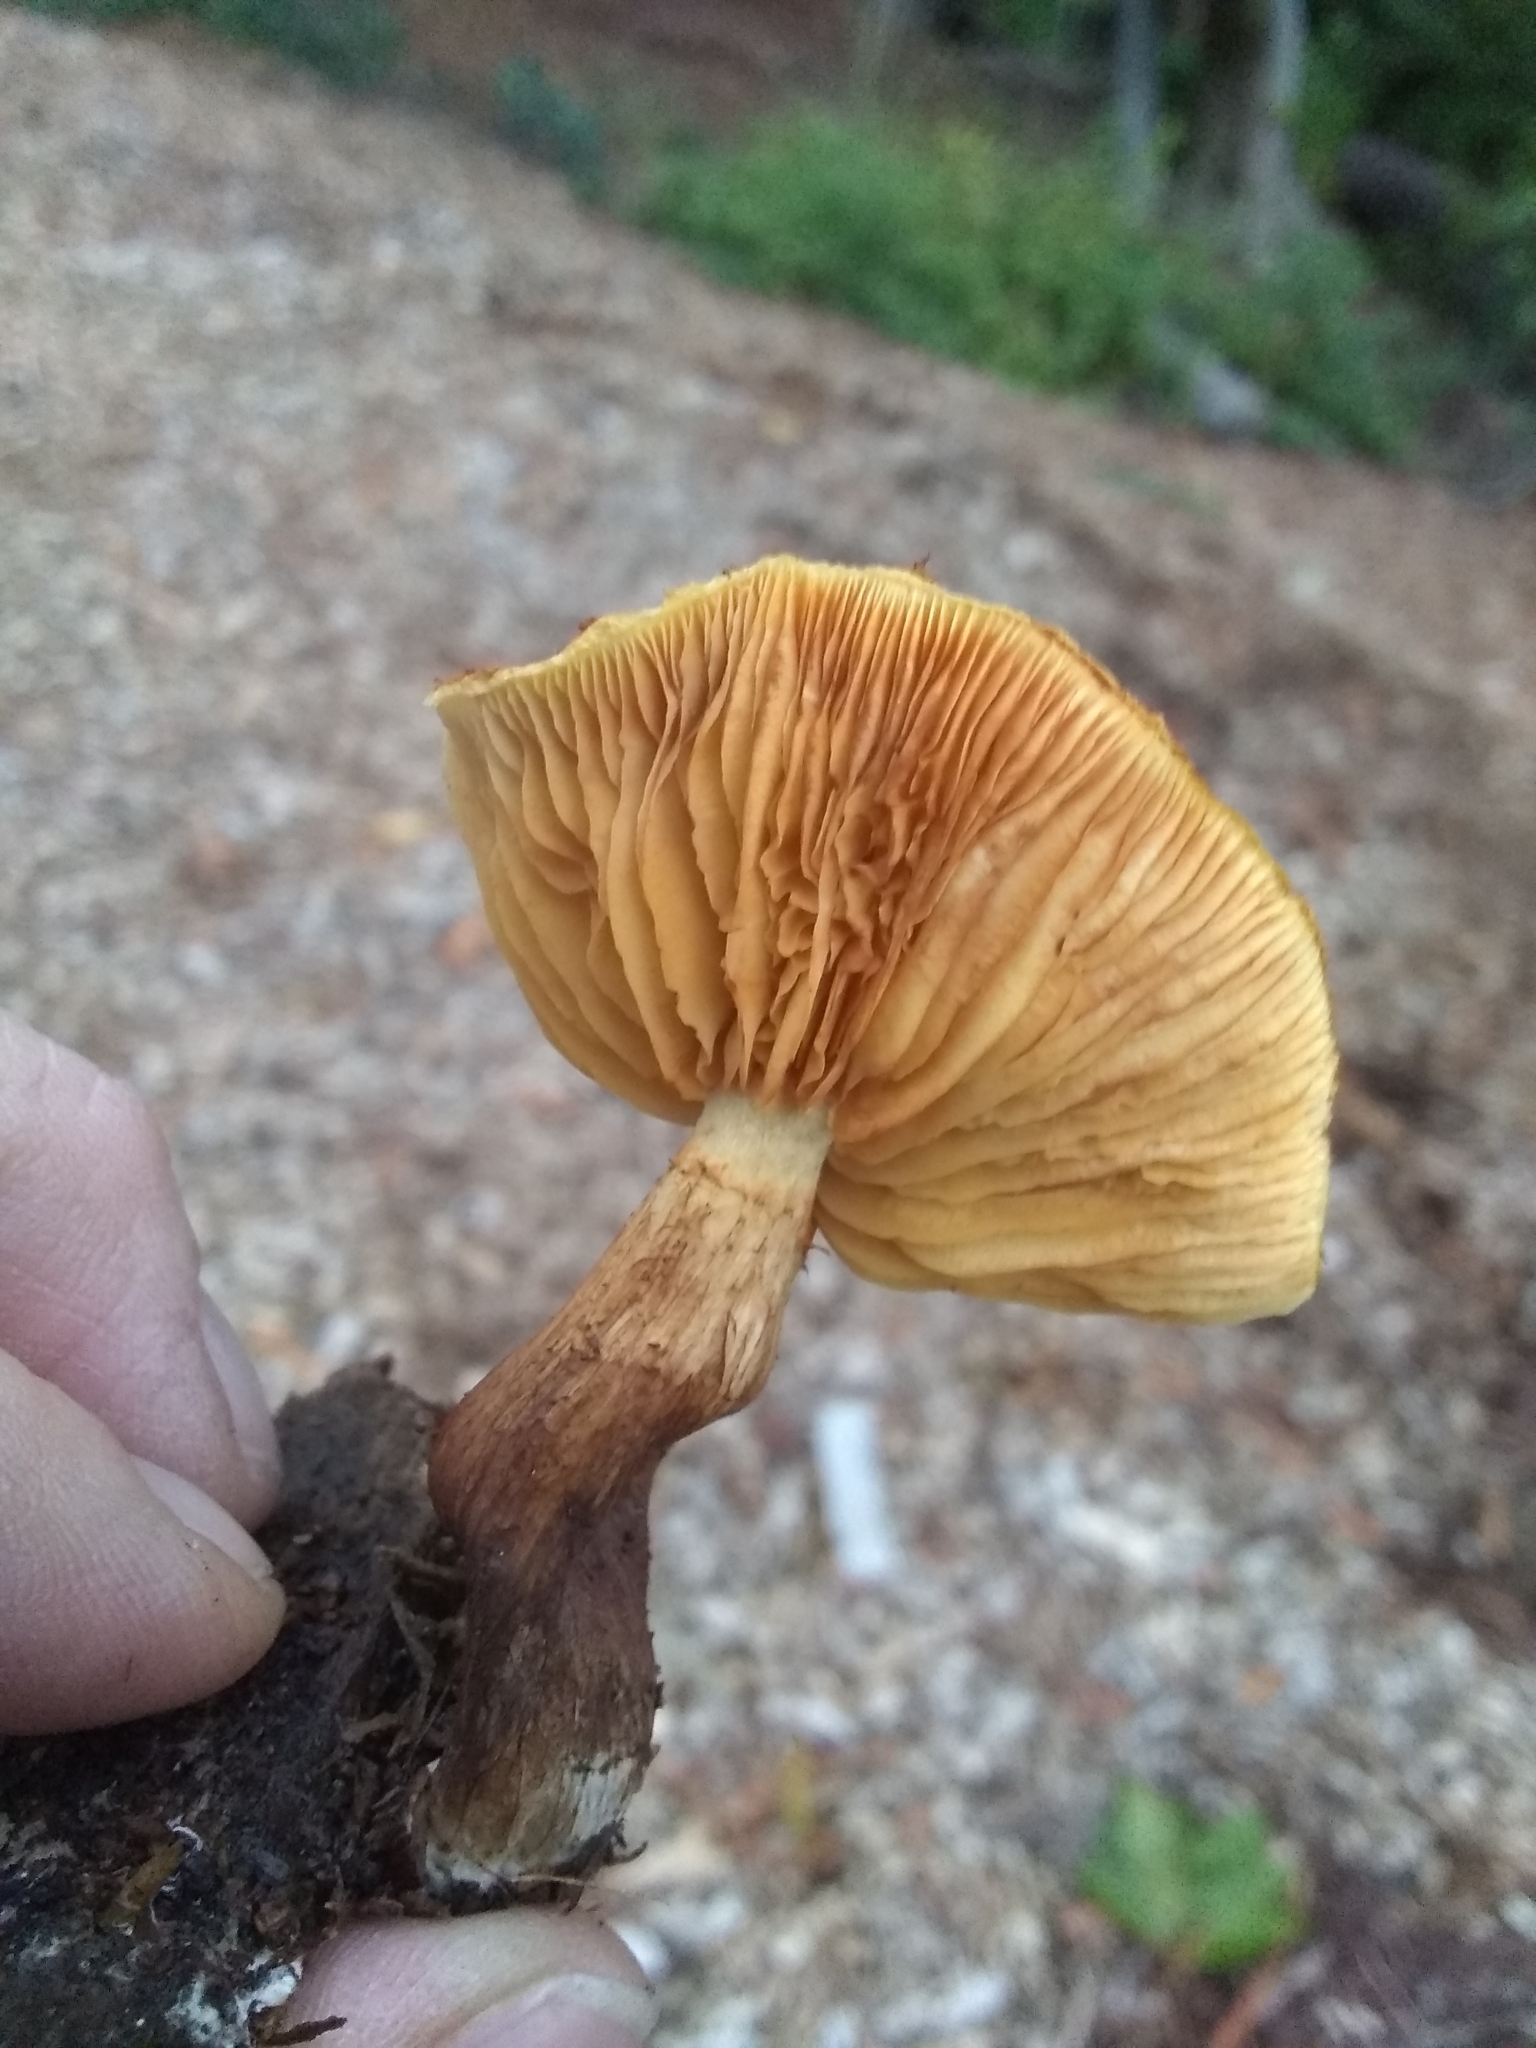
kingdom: Fungi
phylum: Basidiomycota
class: Agaricomycetes
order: Agaricales
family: Hymenogastraceae
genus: Gymnopilus
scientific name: Gymnopilus luteofolius
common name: Yellow-gilled gymnopilus
